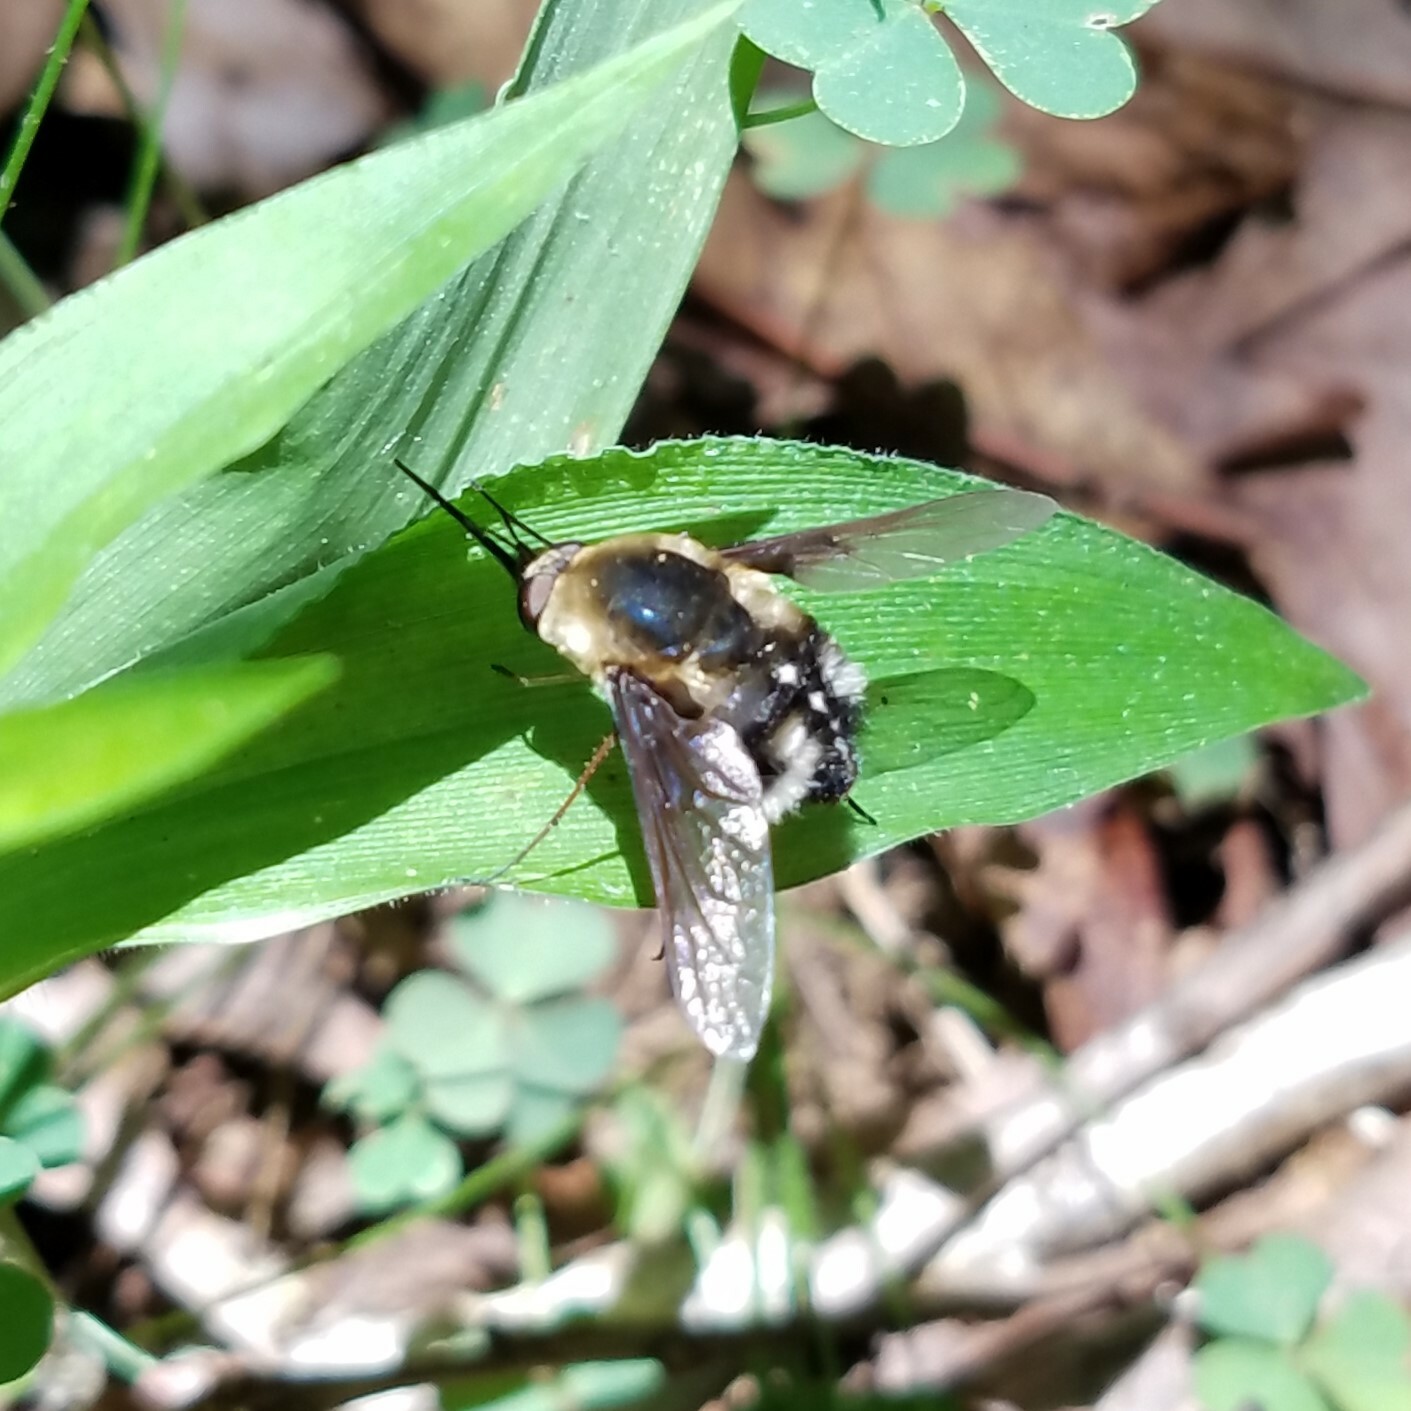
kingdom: Animalia
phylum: Arthropoda
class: Insecta
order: Diptera
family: Bombyliidae
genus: Bombylius
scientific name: Bombylius varius
